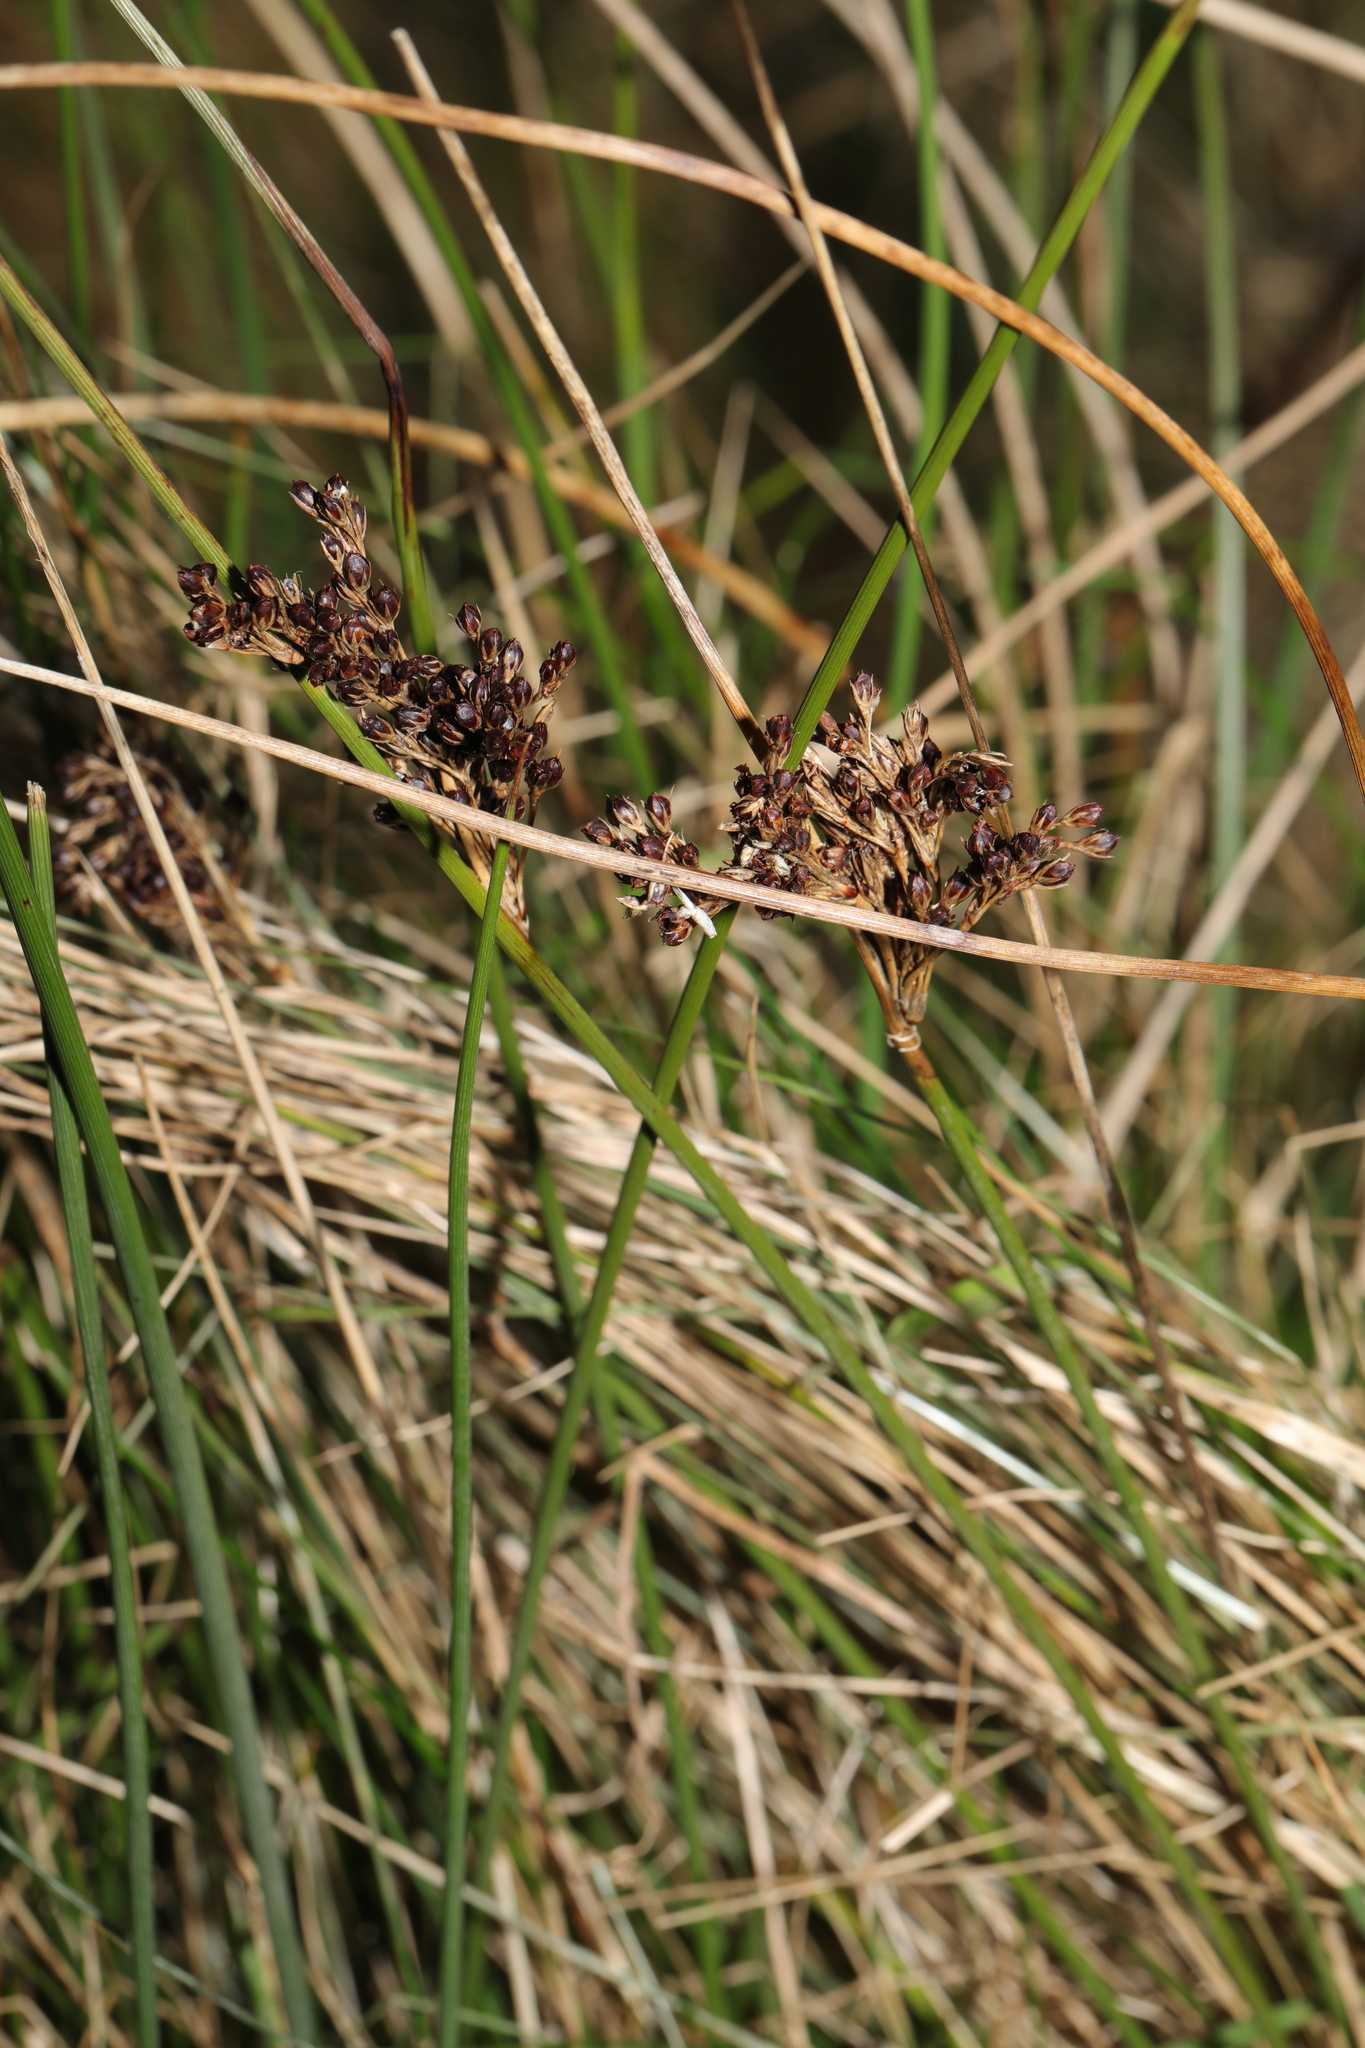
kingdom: Plantae
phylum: Tracheophyta
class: Liliopsida
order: Poales
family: Juncaceae
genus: Juncus
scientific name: Juncus inflexus
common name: Hard rush
